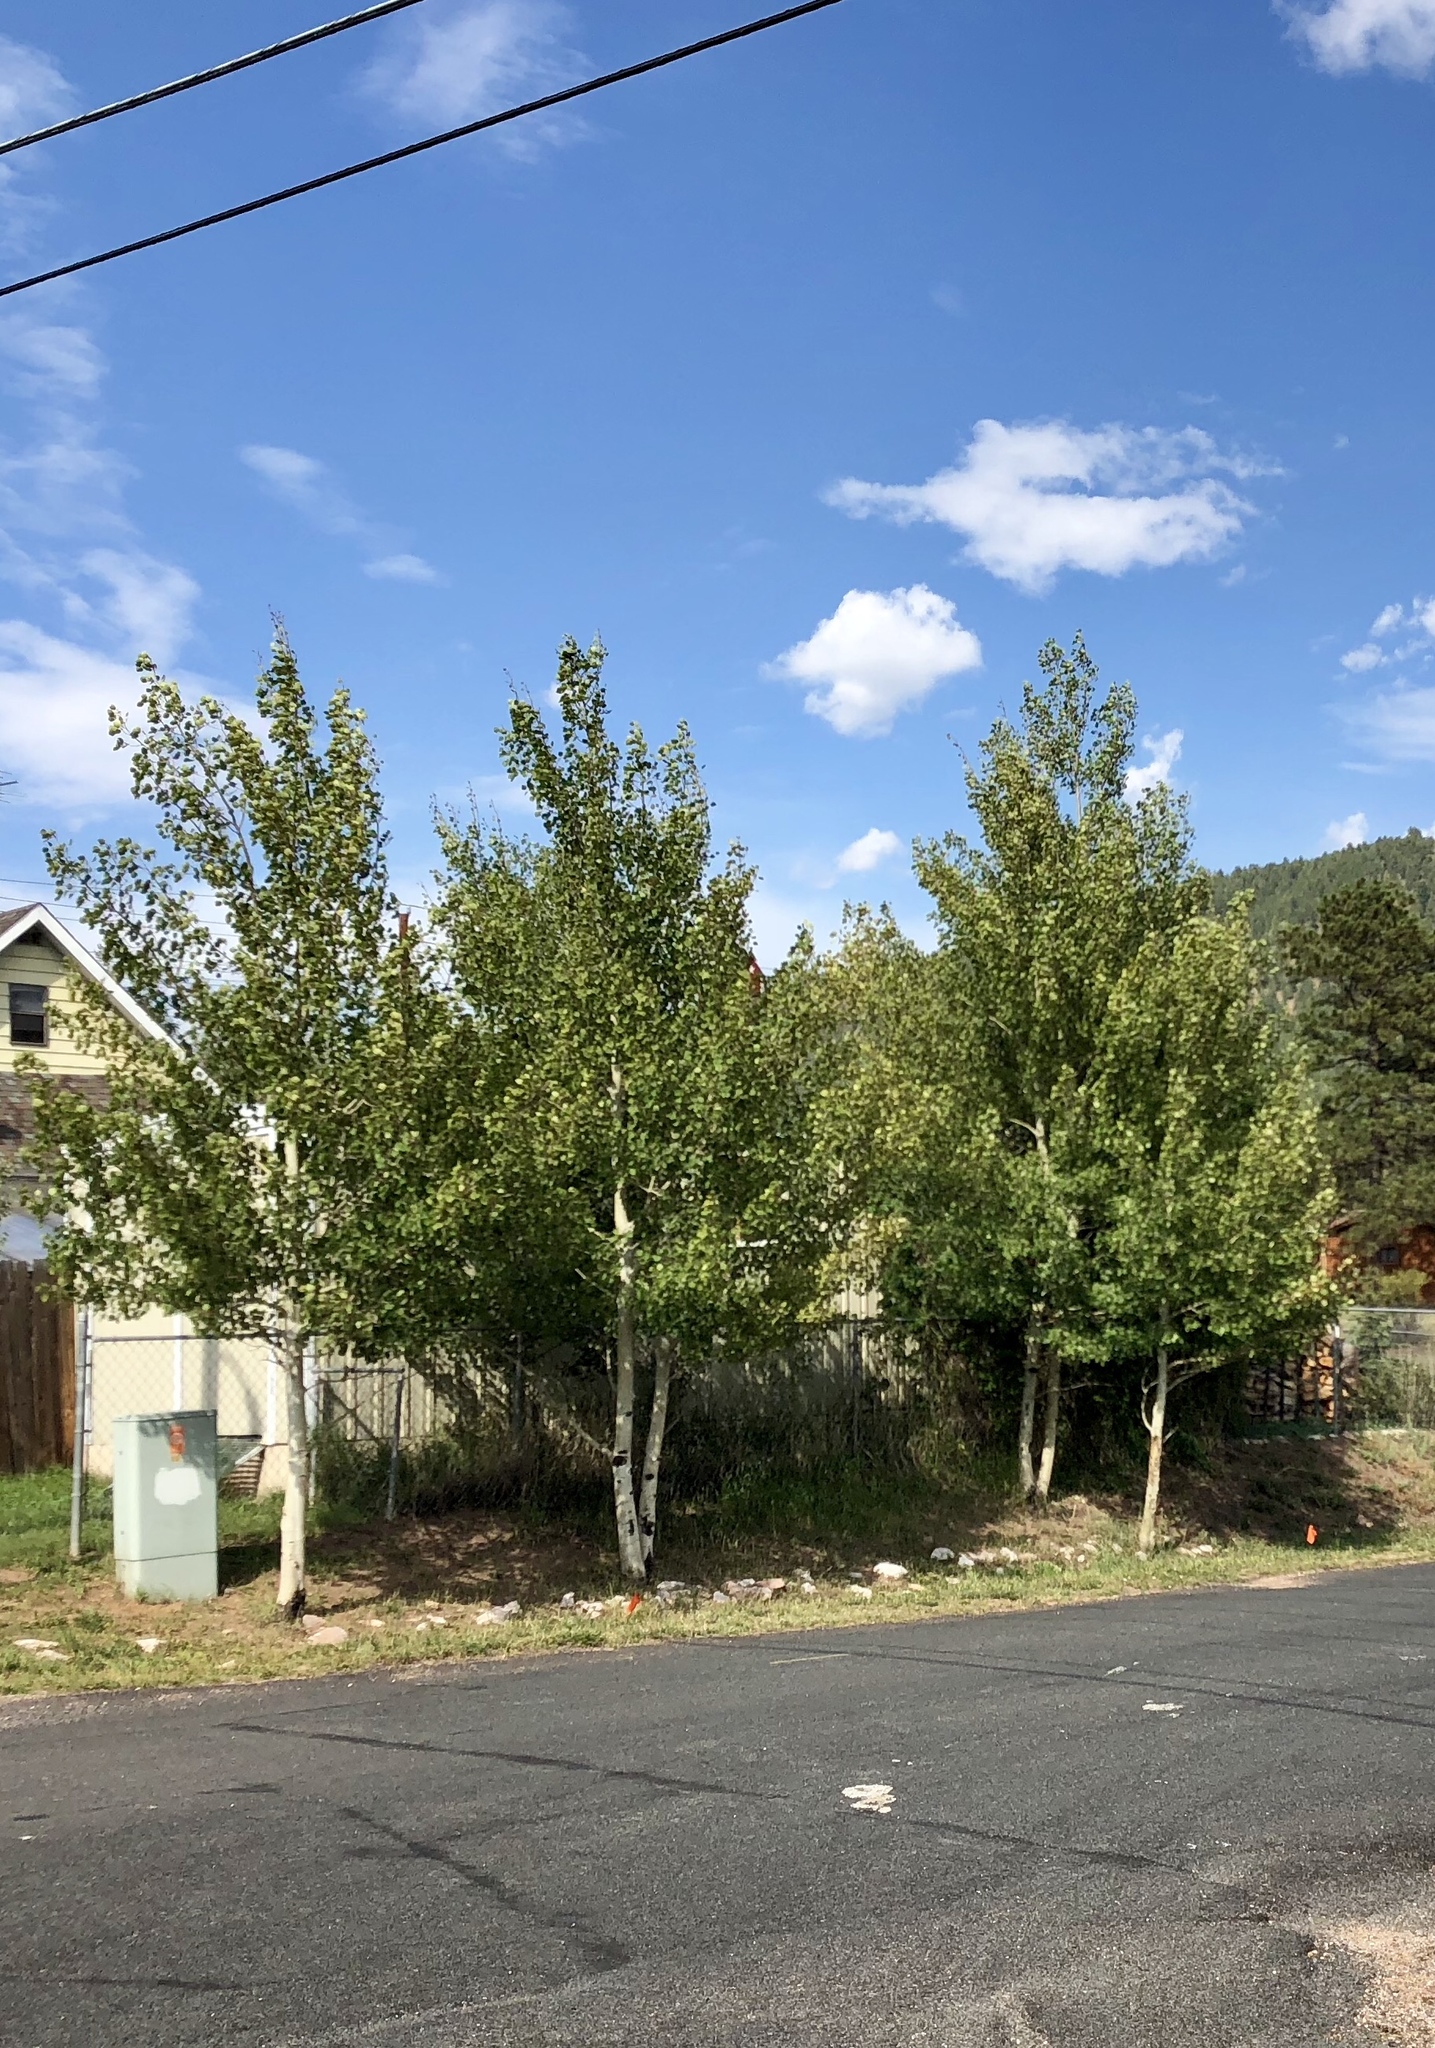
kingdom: Plantae
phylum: Tracheophyta
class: Magnoliopsida
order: Malpighiales
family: Salicaceae
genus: Populus
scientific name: Populus tremuloides
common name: Quaking aspen
